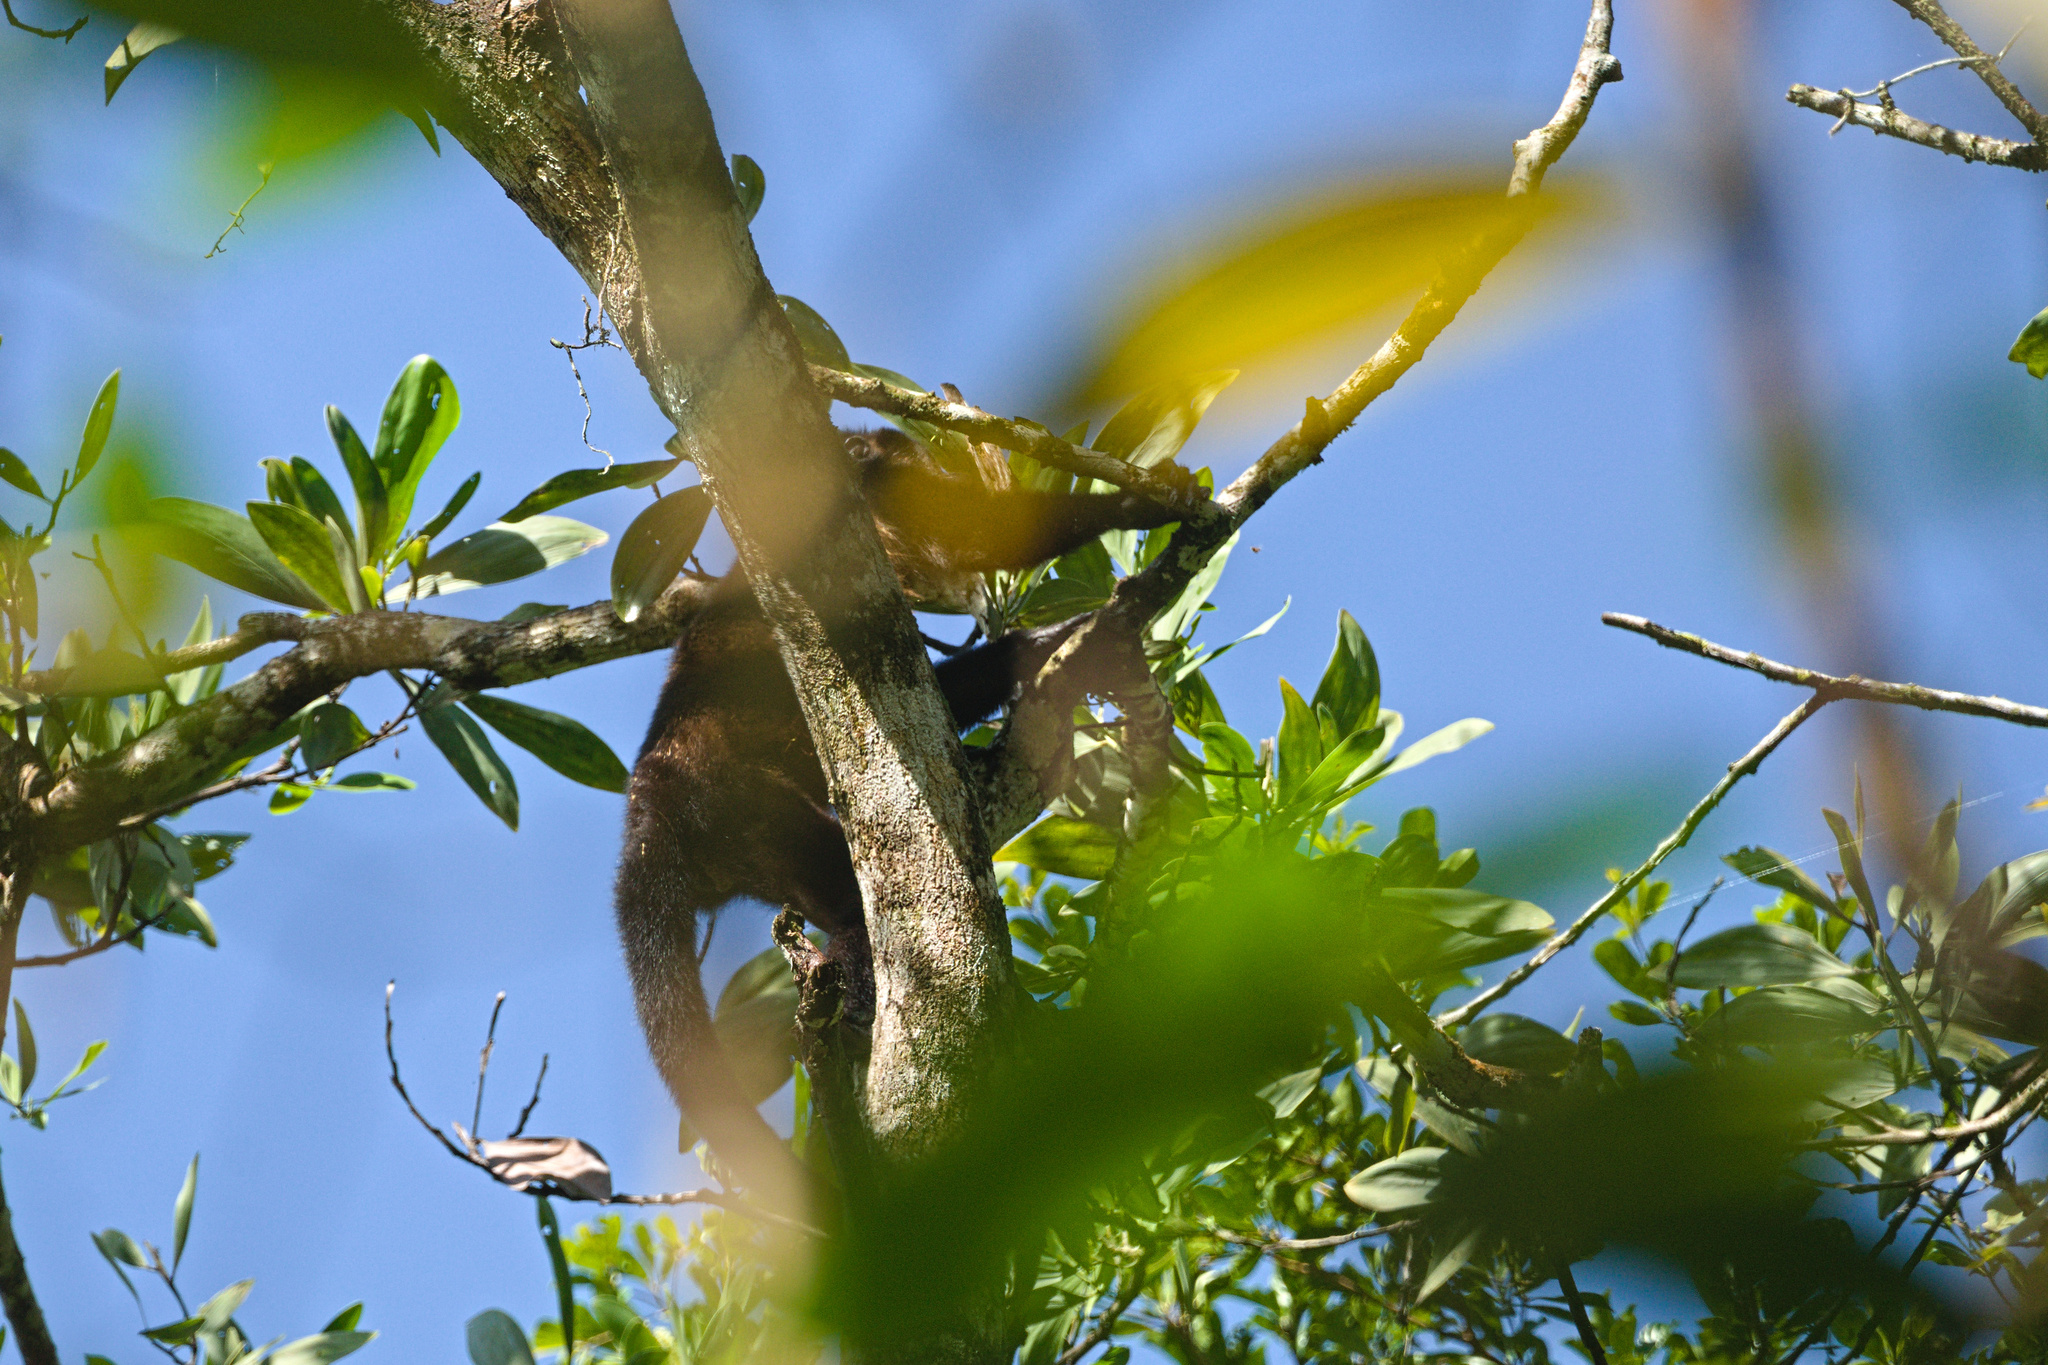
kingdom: Animalia
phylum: Chordata
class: Mammalia
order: Primates
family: Atelidae
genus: Alouatta
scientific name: Alouatta palliata
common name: Mantled howler
